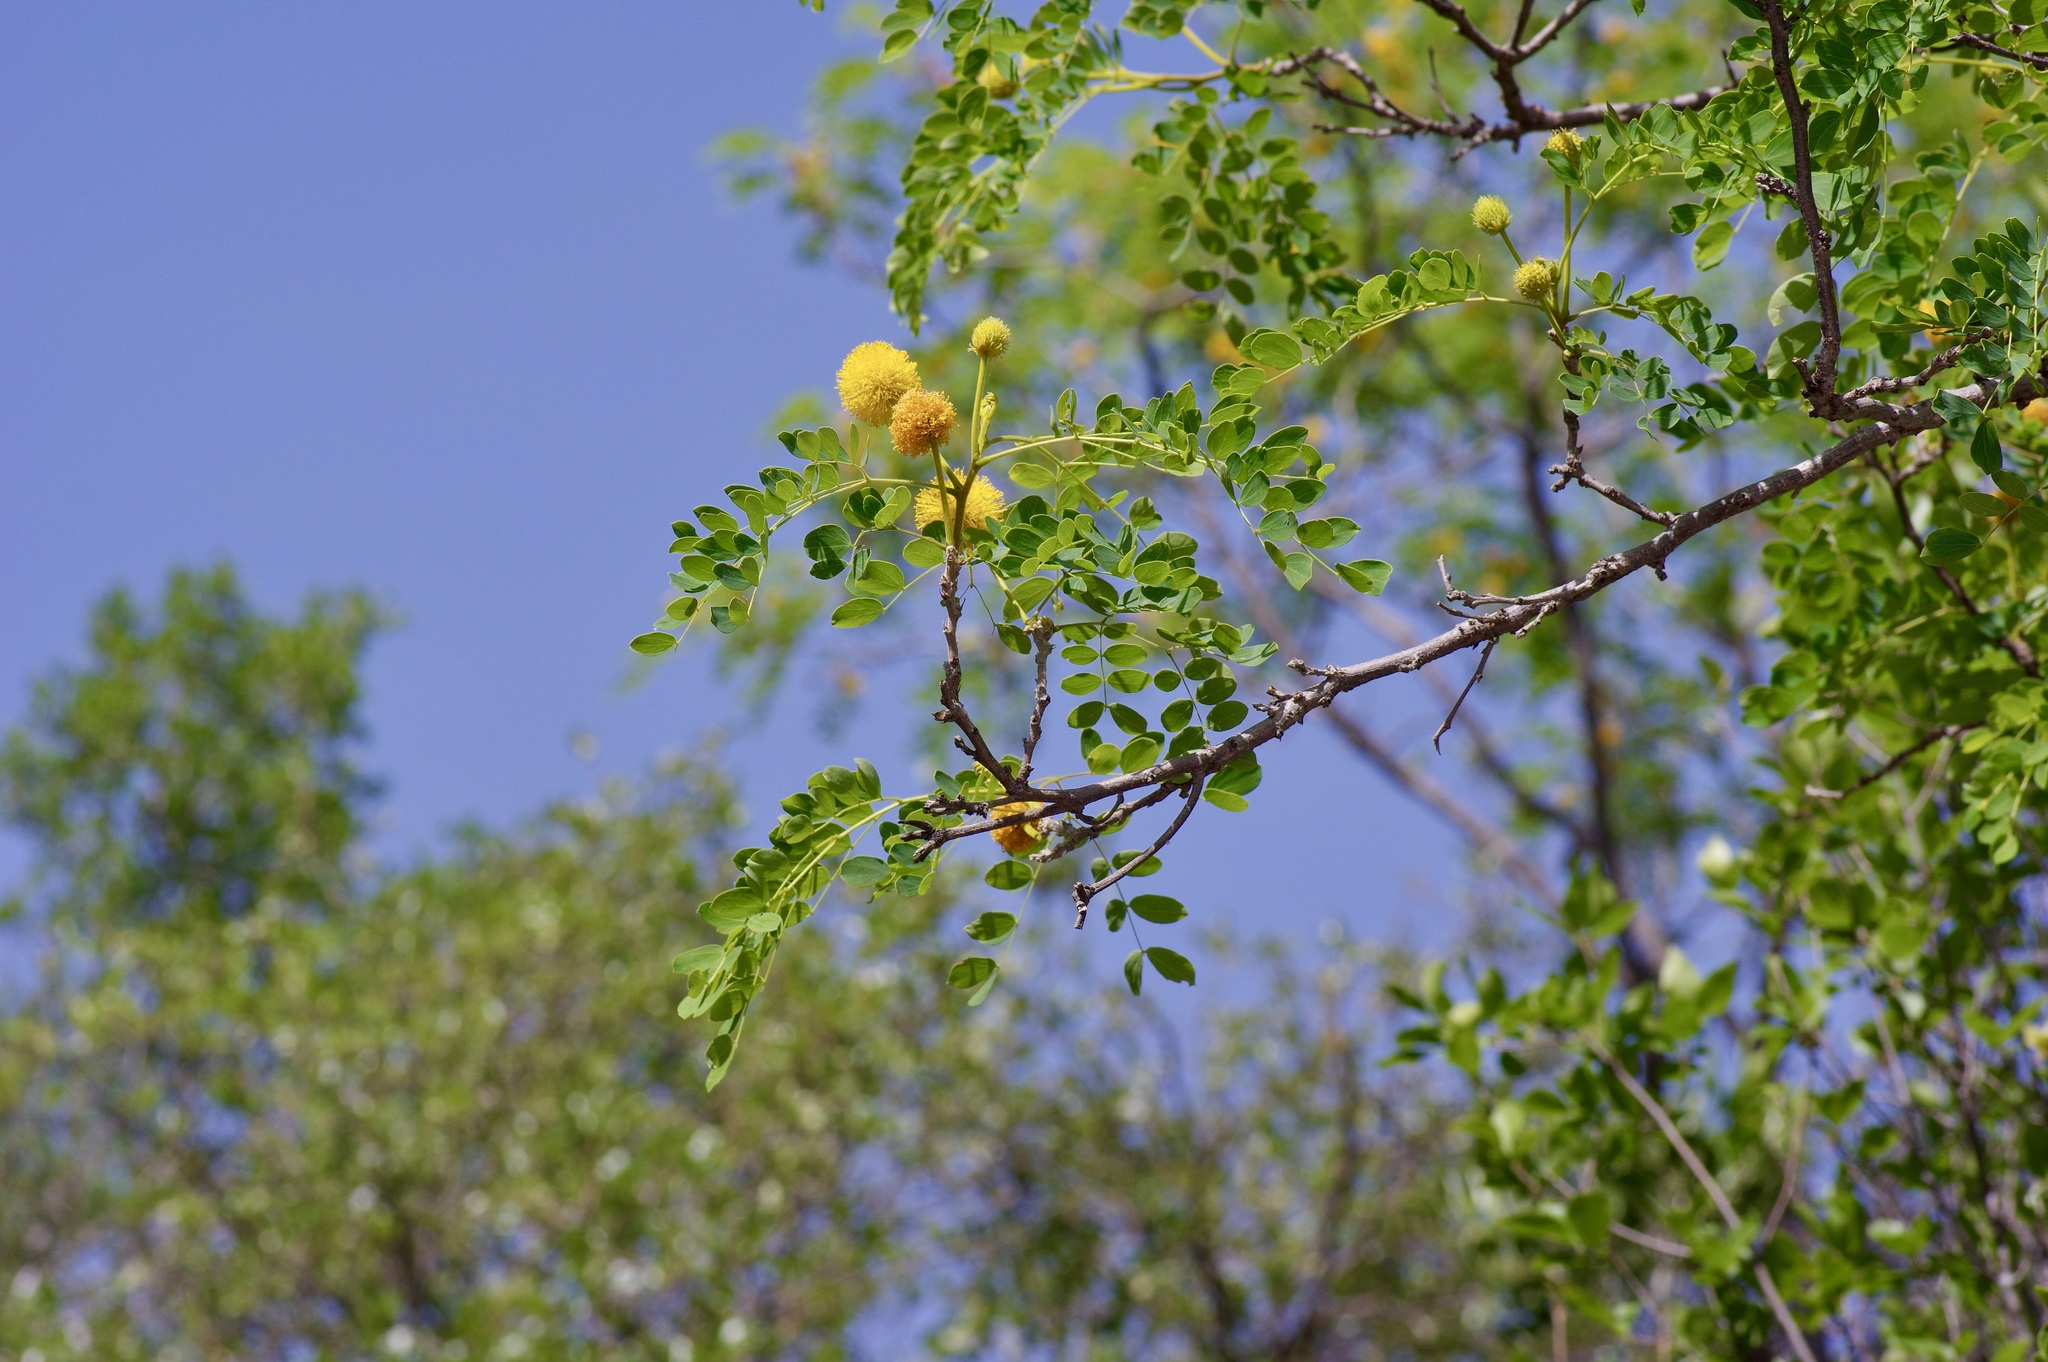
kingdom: Plantae
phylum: Tracheophyta
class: Magnoliopsida
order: Fabales
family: Fabaceae
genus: Leucaena
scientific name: Leucaena retusa
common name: Littleleaf leadtree
